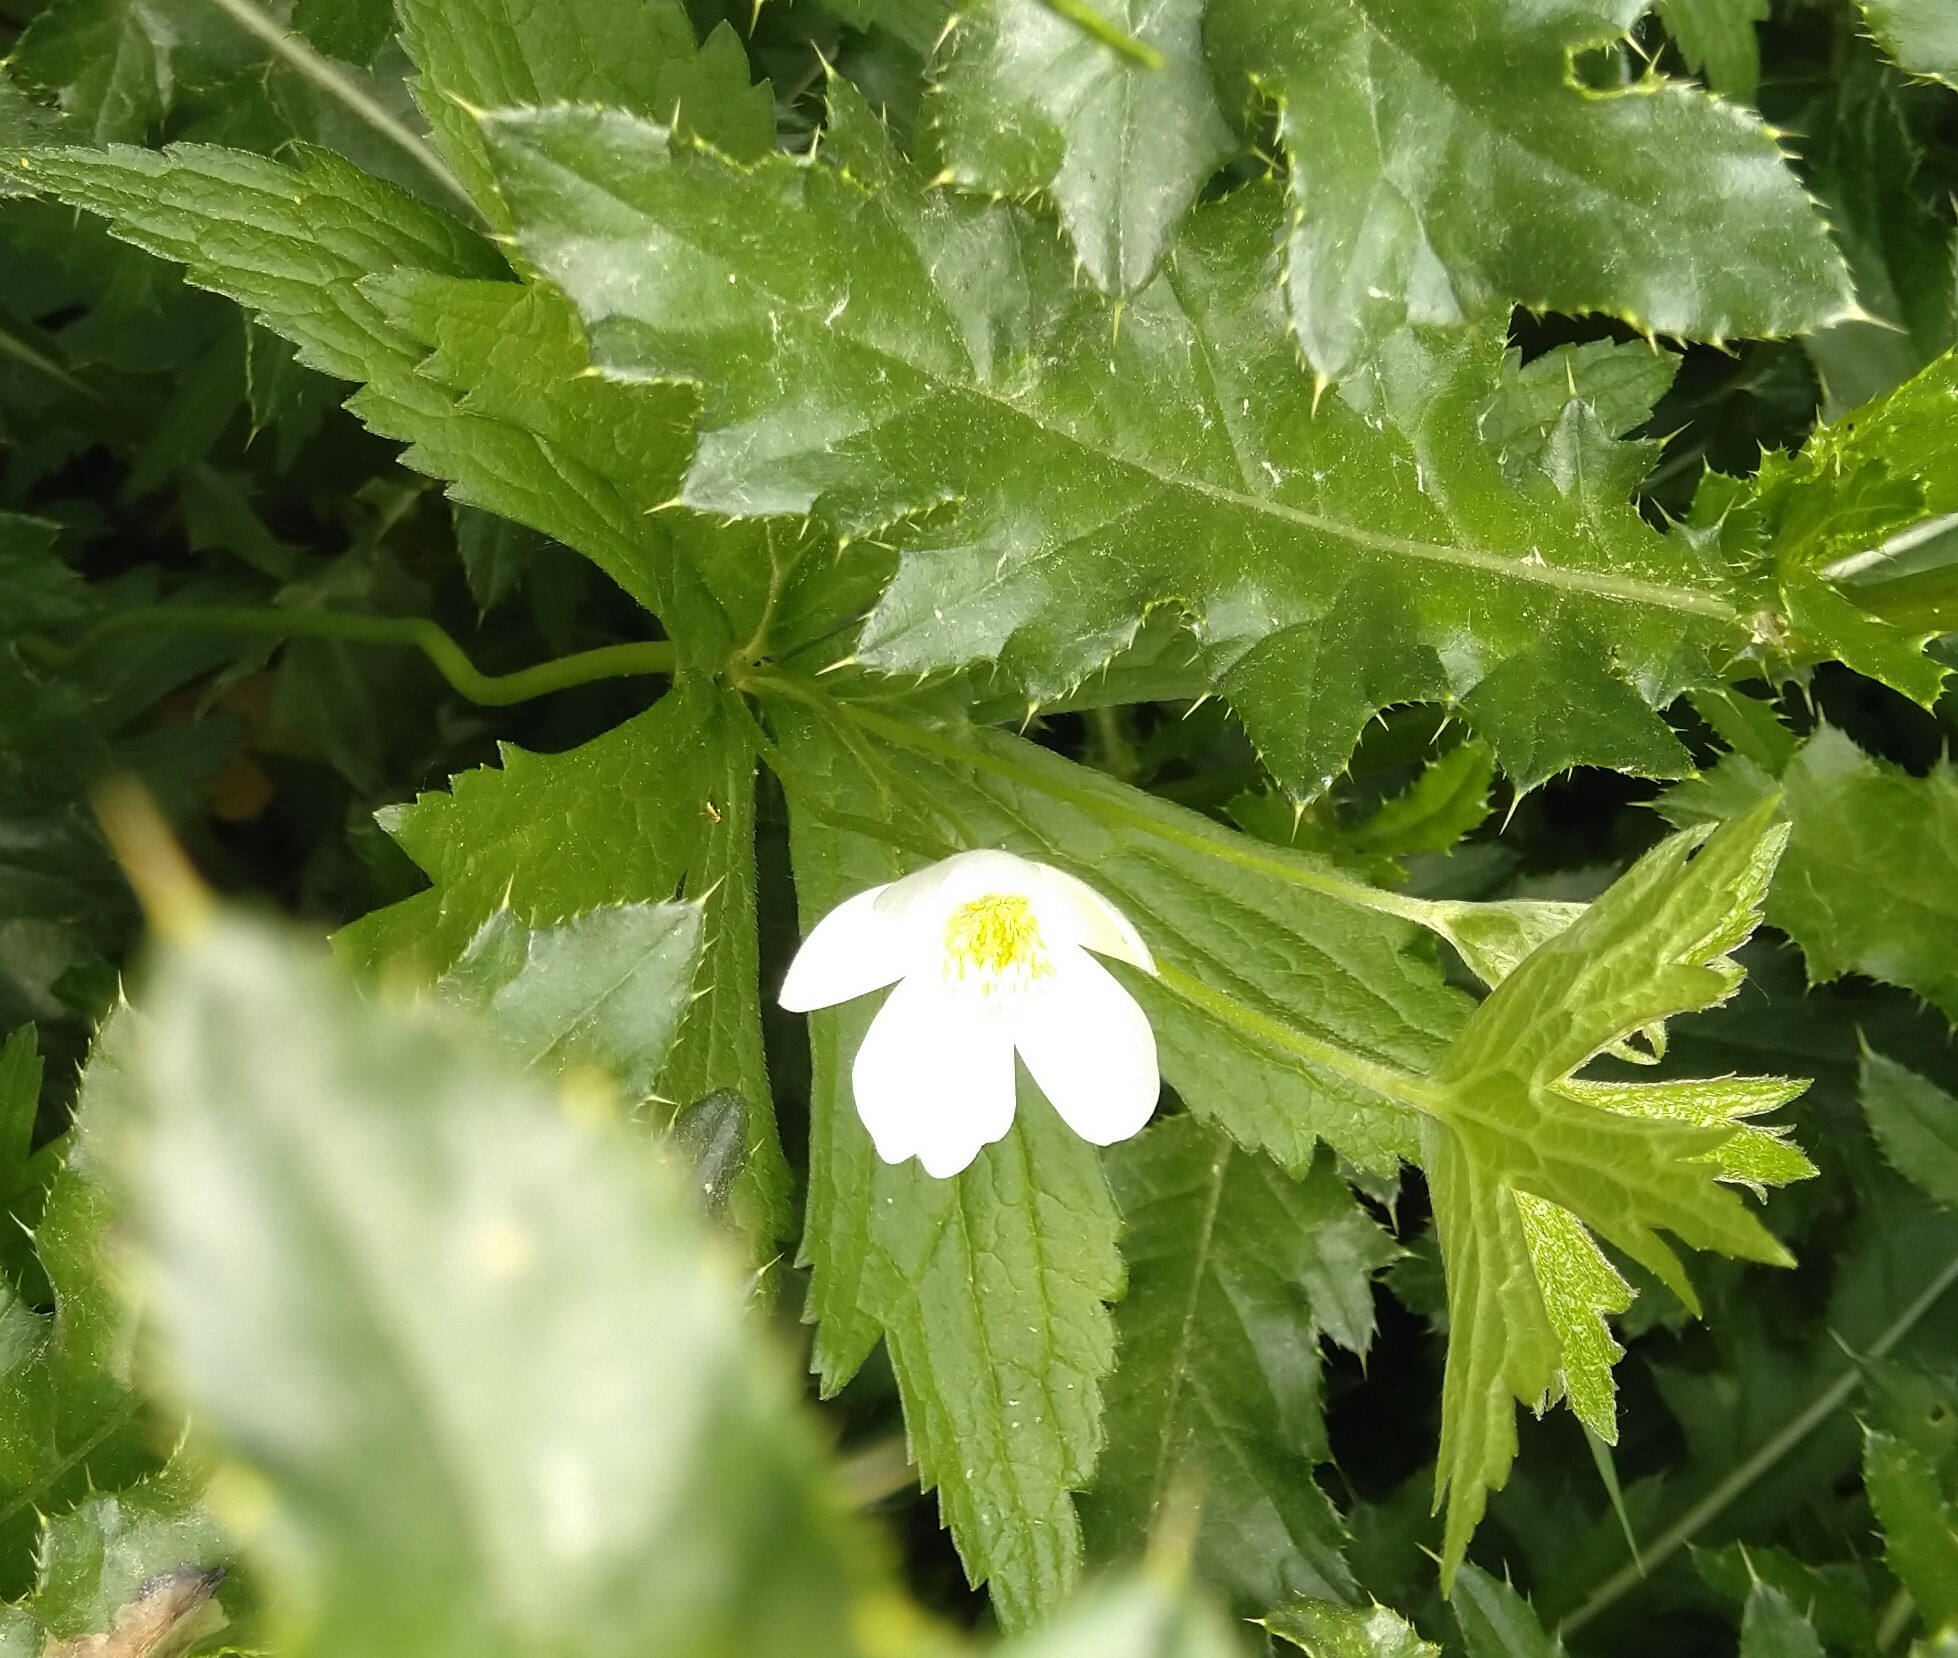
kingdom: Plantae
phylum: Tracheophyta
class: Magnoliopsida
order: Ranunculales
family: Ranunculaceae
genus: Anemonastrum
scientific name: Anemonastrum canadense
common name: Canada anemone
